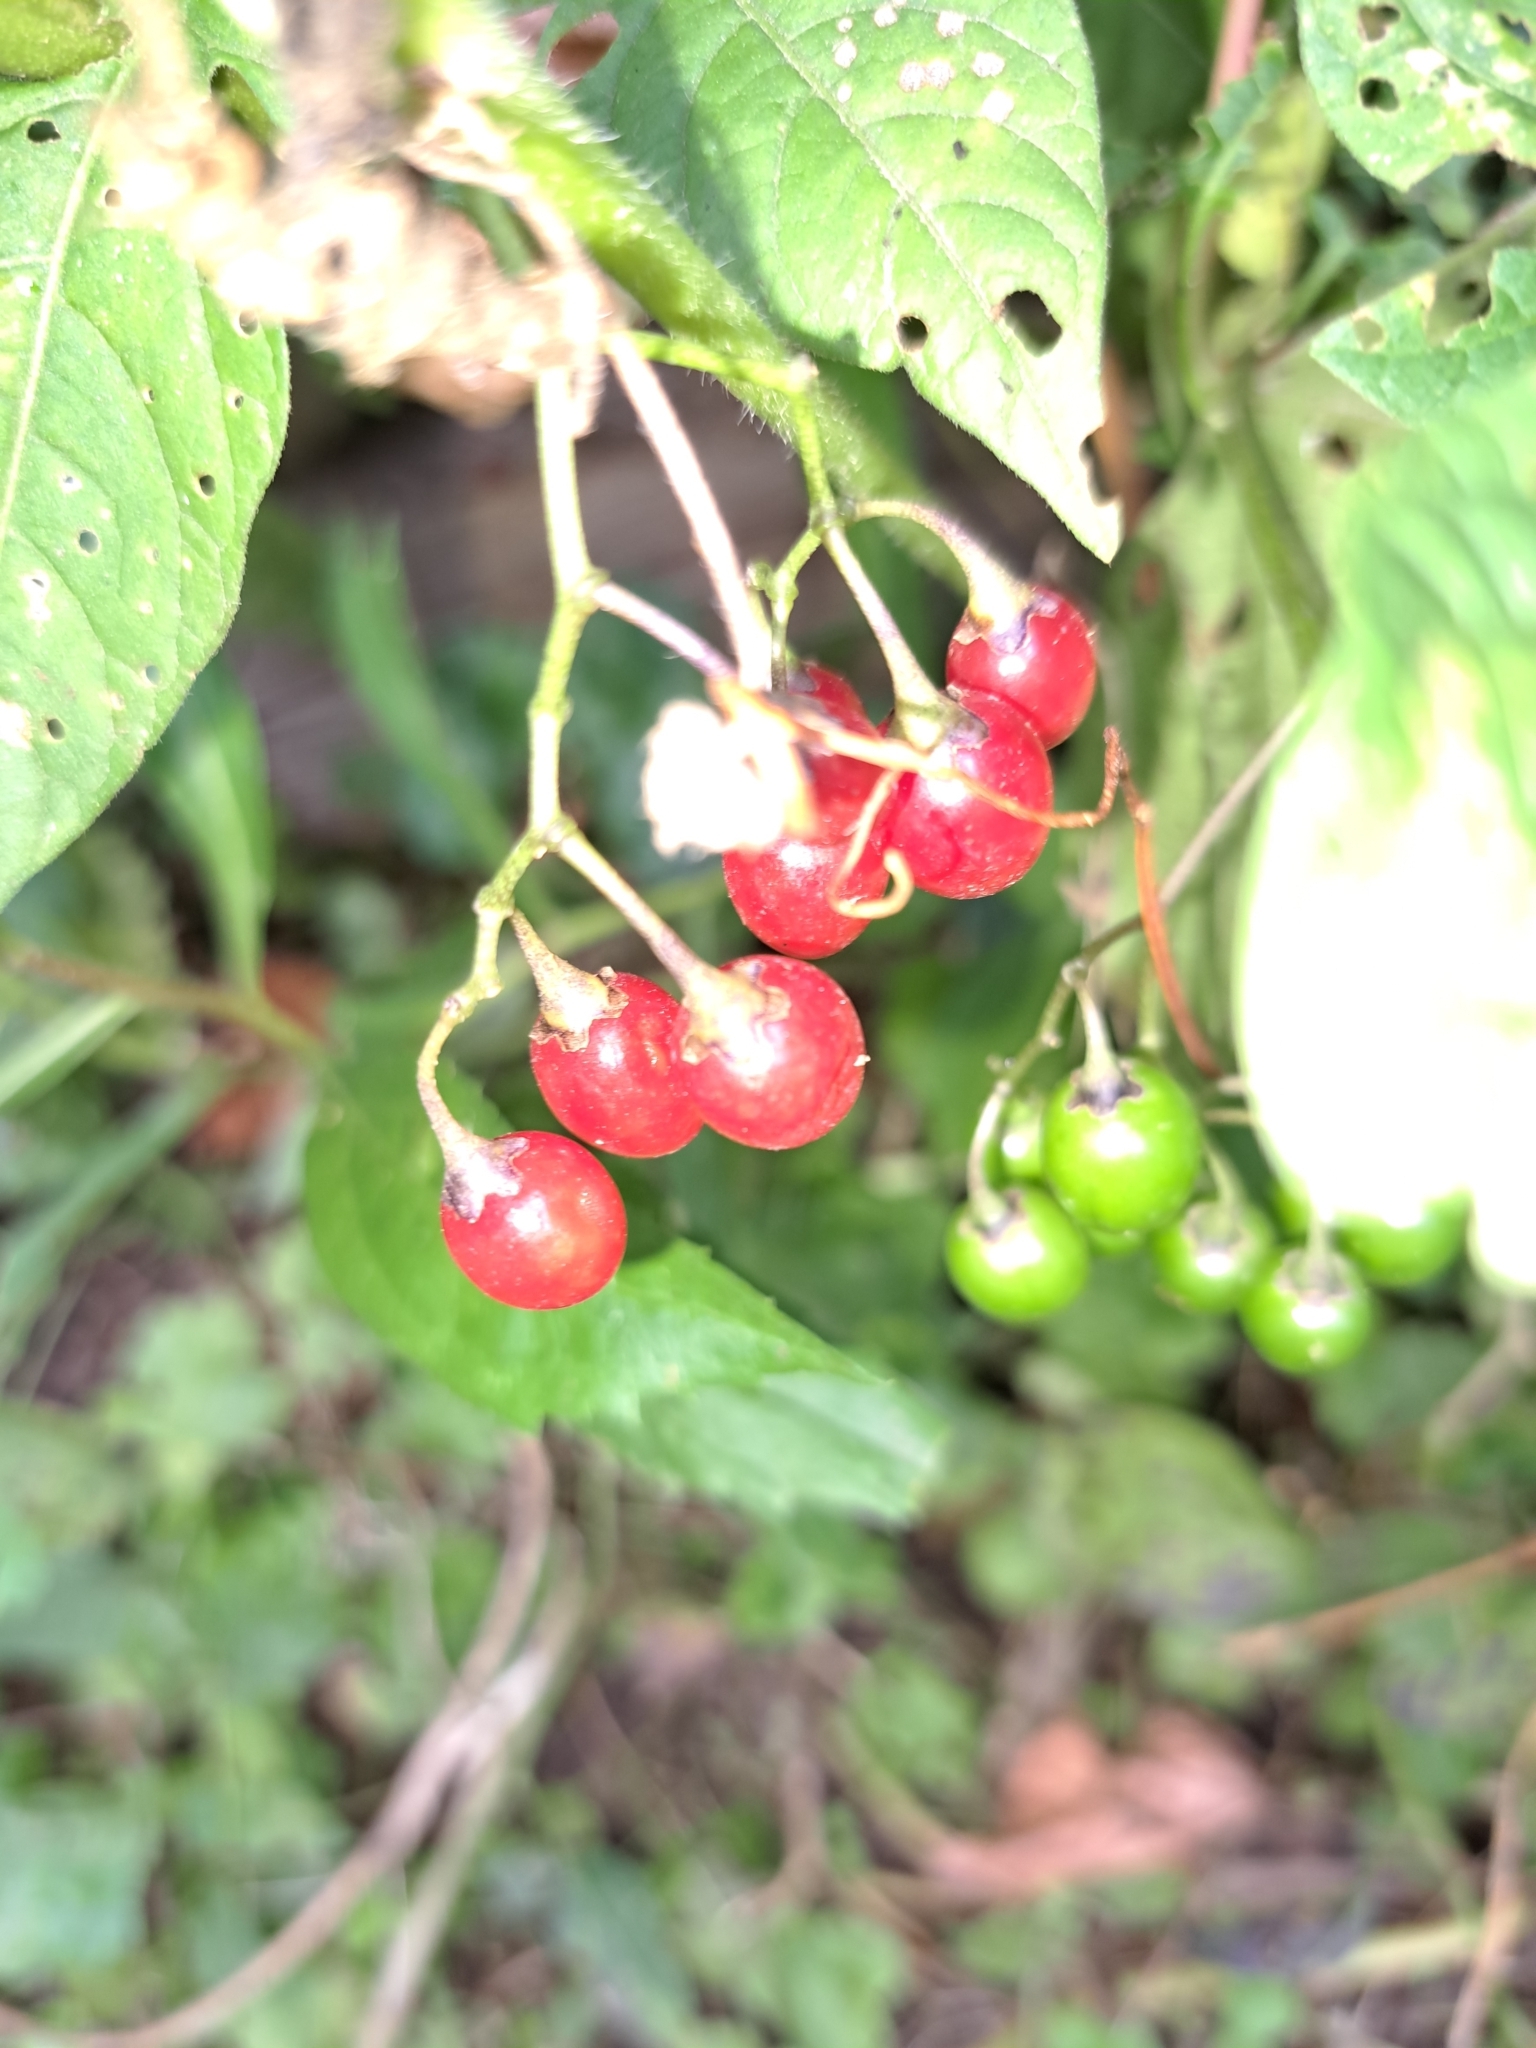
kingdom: Plantae
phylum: Tracheophyta
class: Magnoliopsida
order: Solanales
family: Solanaceae
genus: Solanum
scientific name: Solanum dulcamara
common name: Climbing nightshade
